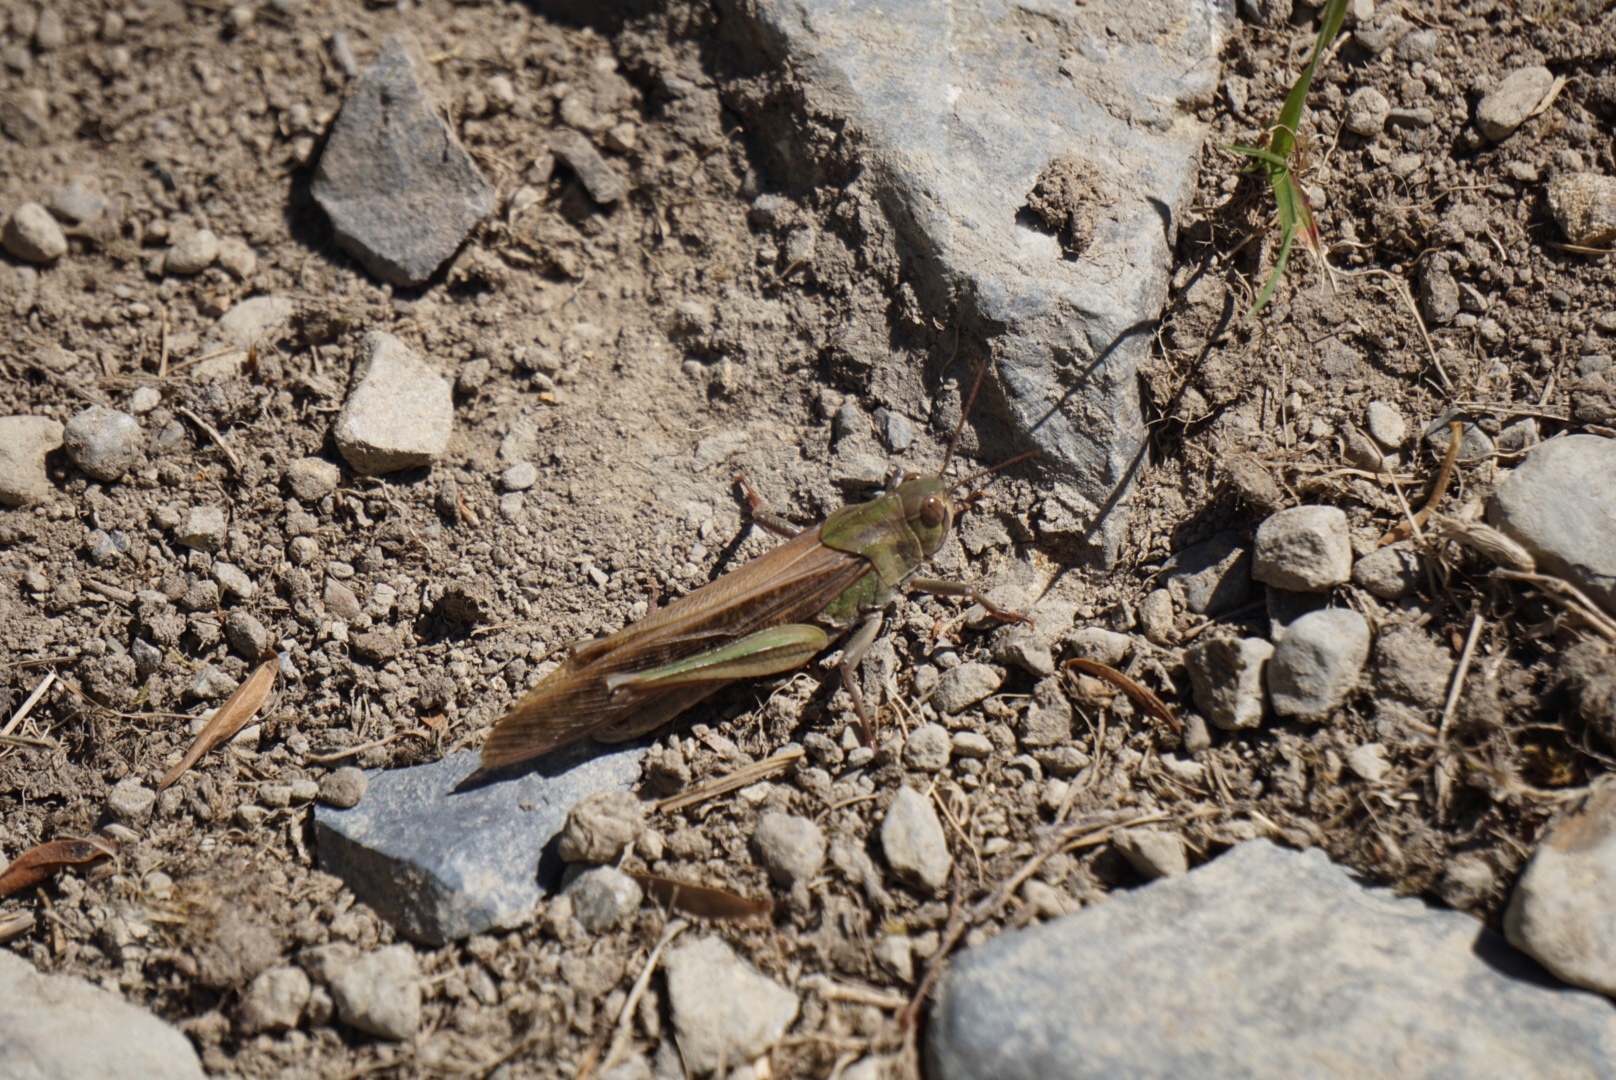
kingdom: Animalia
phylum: Arthropoda
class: Insecta
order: Orthoptera
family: Acrididae
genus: Locusta
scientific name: Locusta migratoria
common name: Migratory locust
